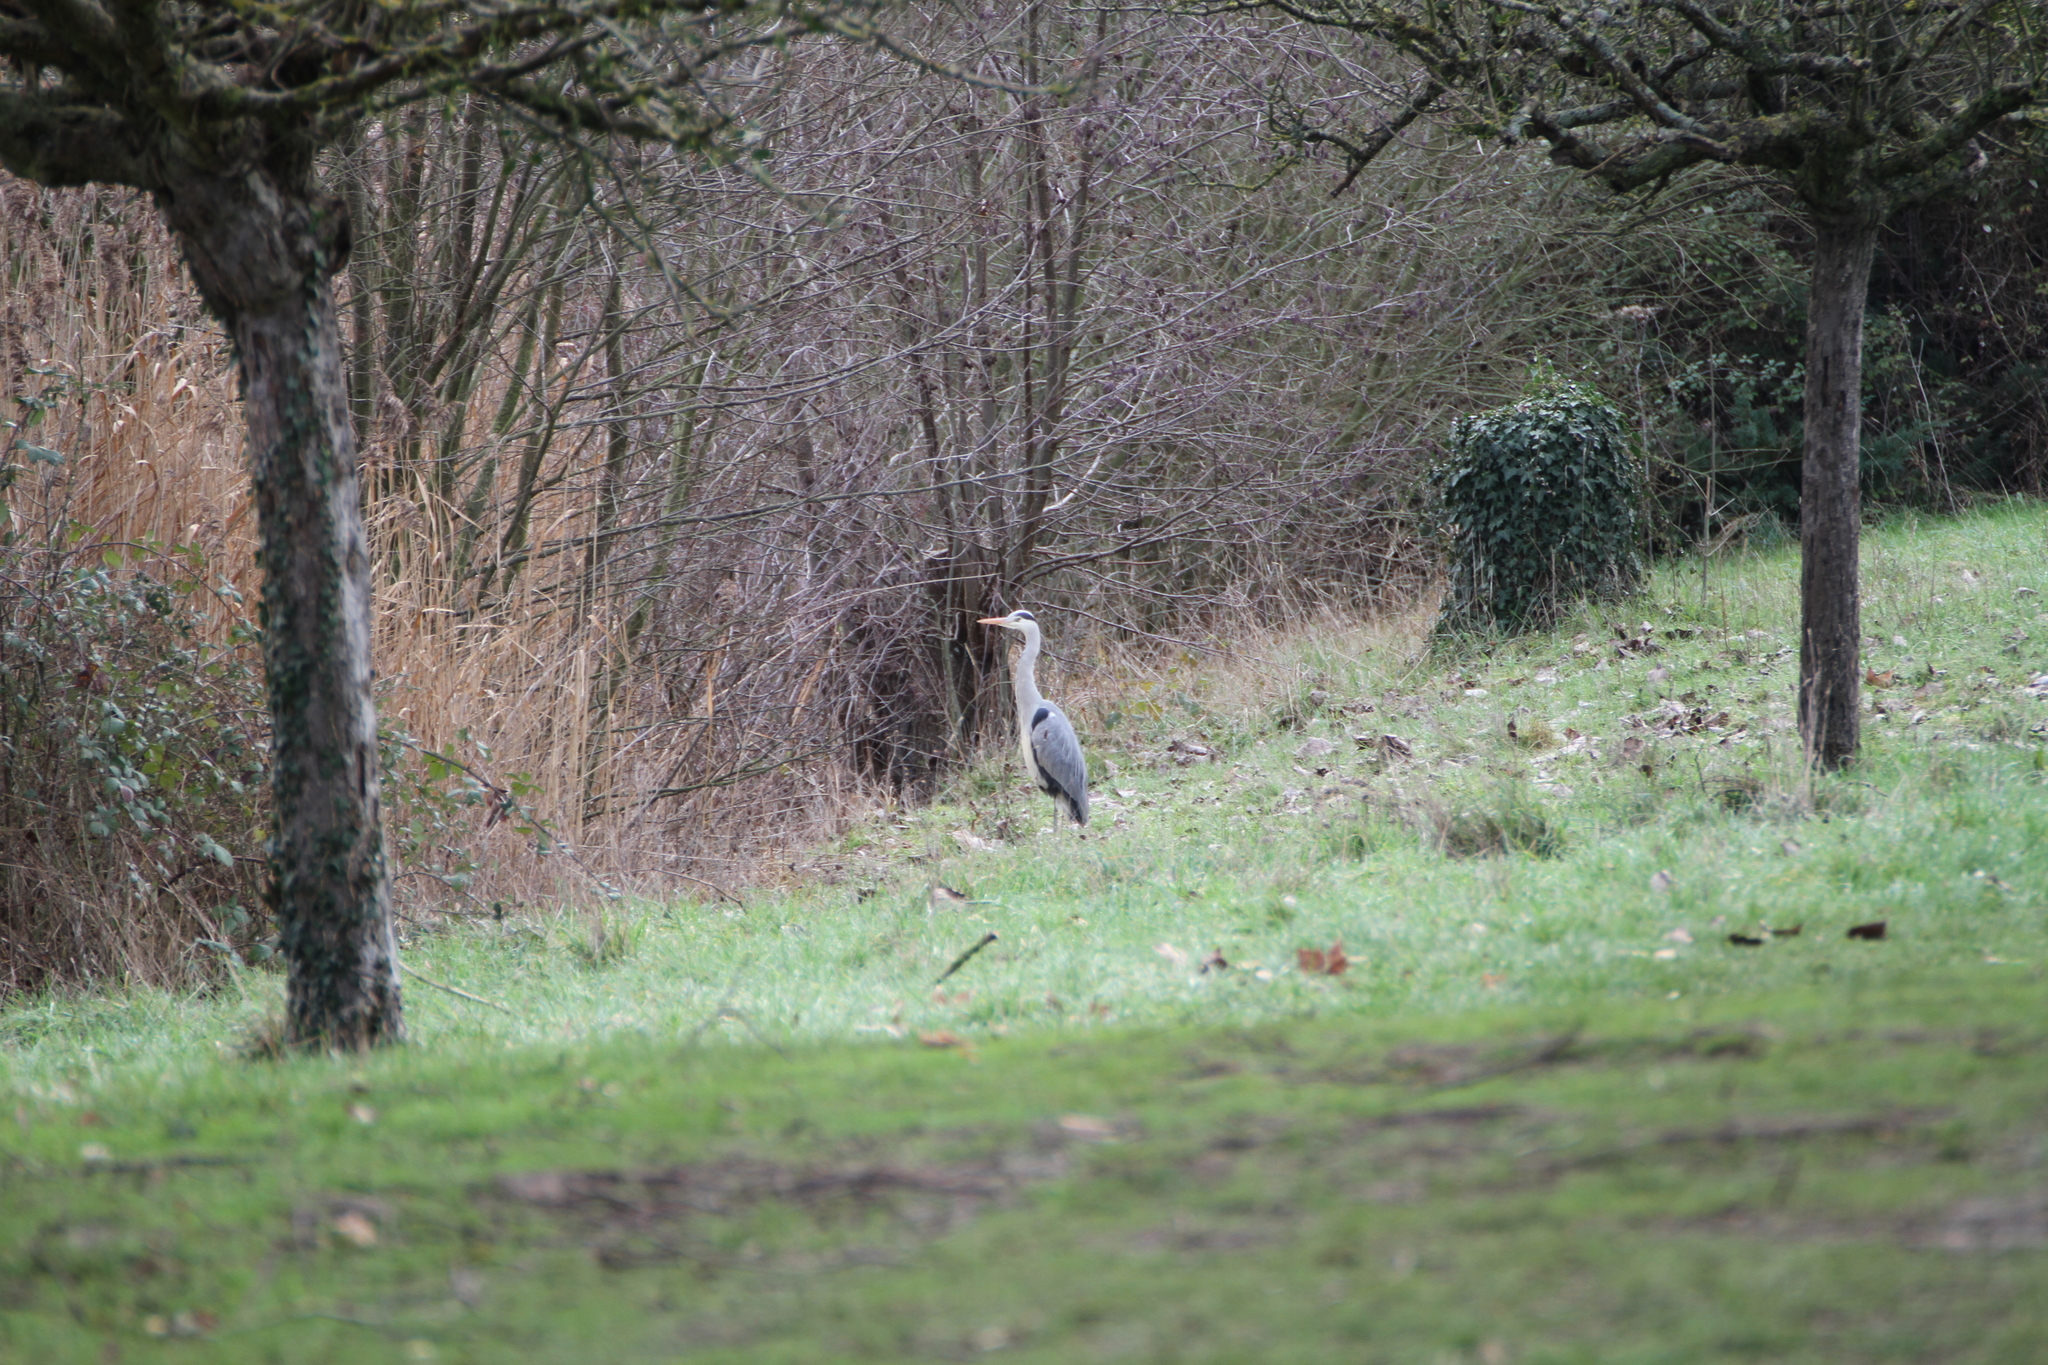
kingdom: Animalia
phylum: Chordata
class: Aves
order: Pelecaniformes
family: Ardeidae
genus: Ardea
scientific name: Ardea cinerea
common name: Grey heron
